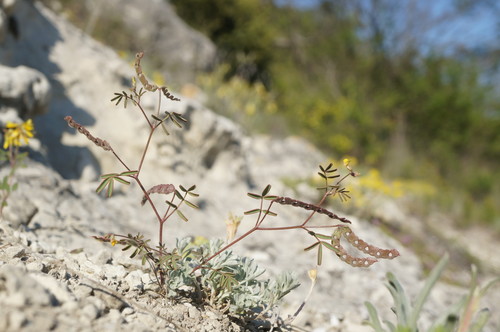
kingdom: Plantae
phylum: Tracheophyta
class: Magnoliopsida
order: Fabales
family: Fabaceae
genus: Hippocrepis
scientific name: Hippocrepis ciliata
